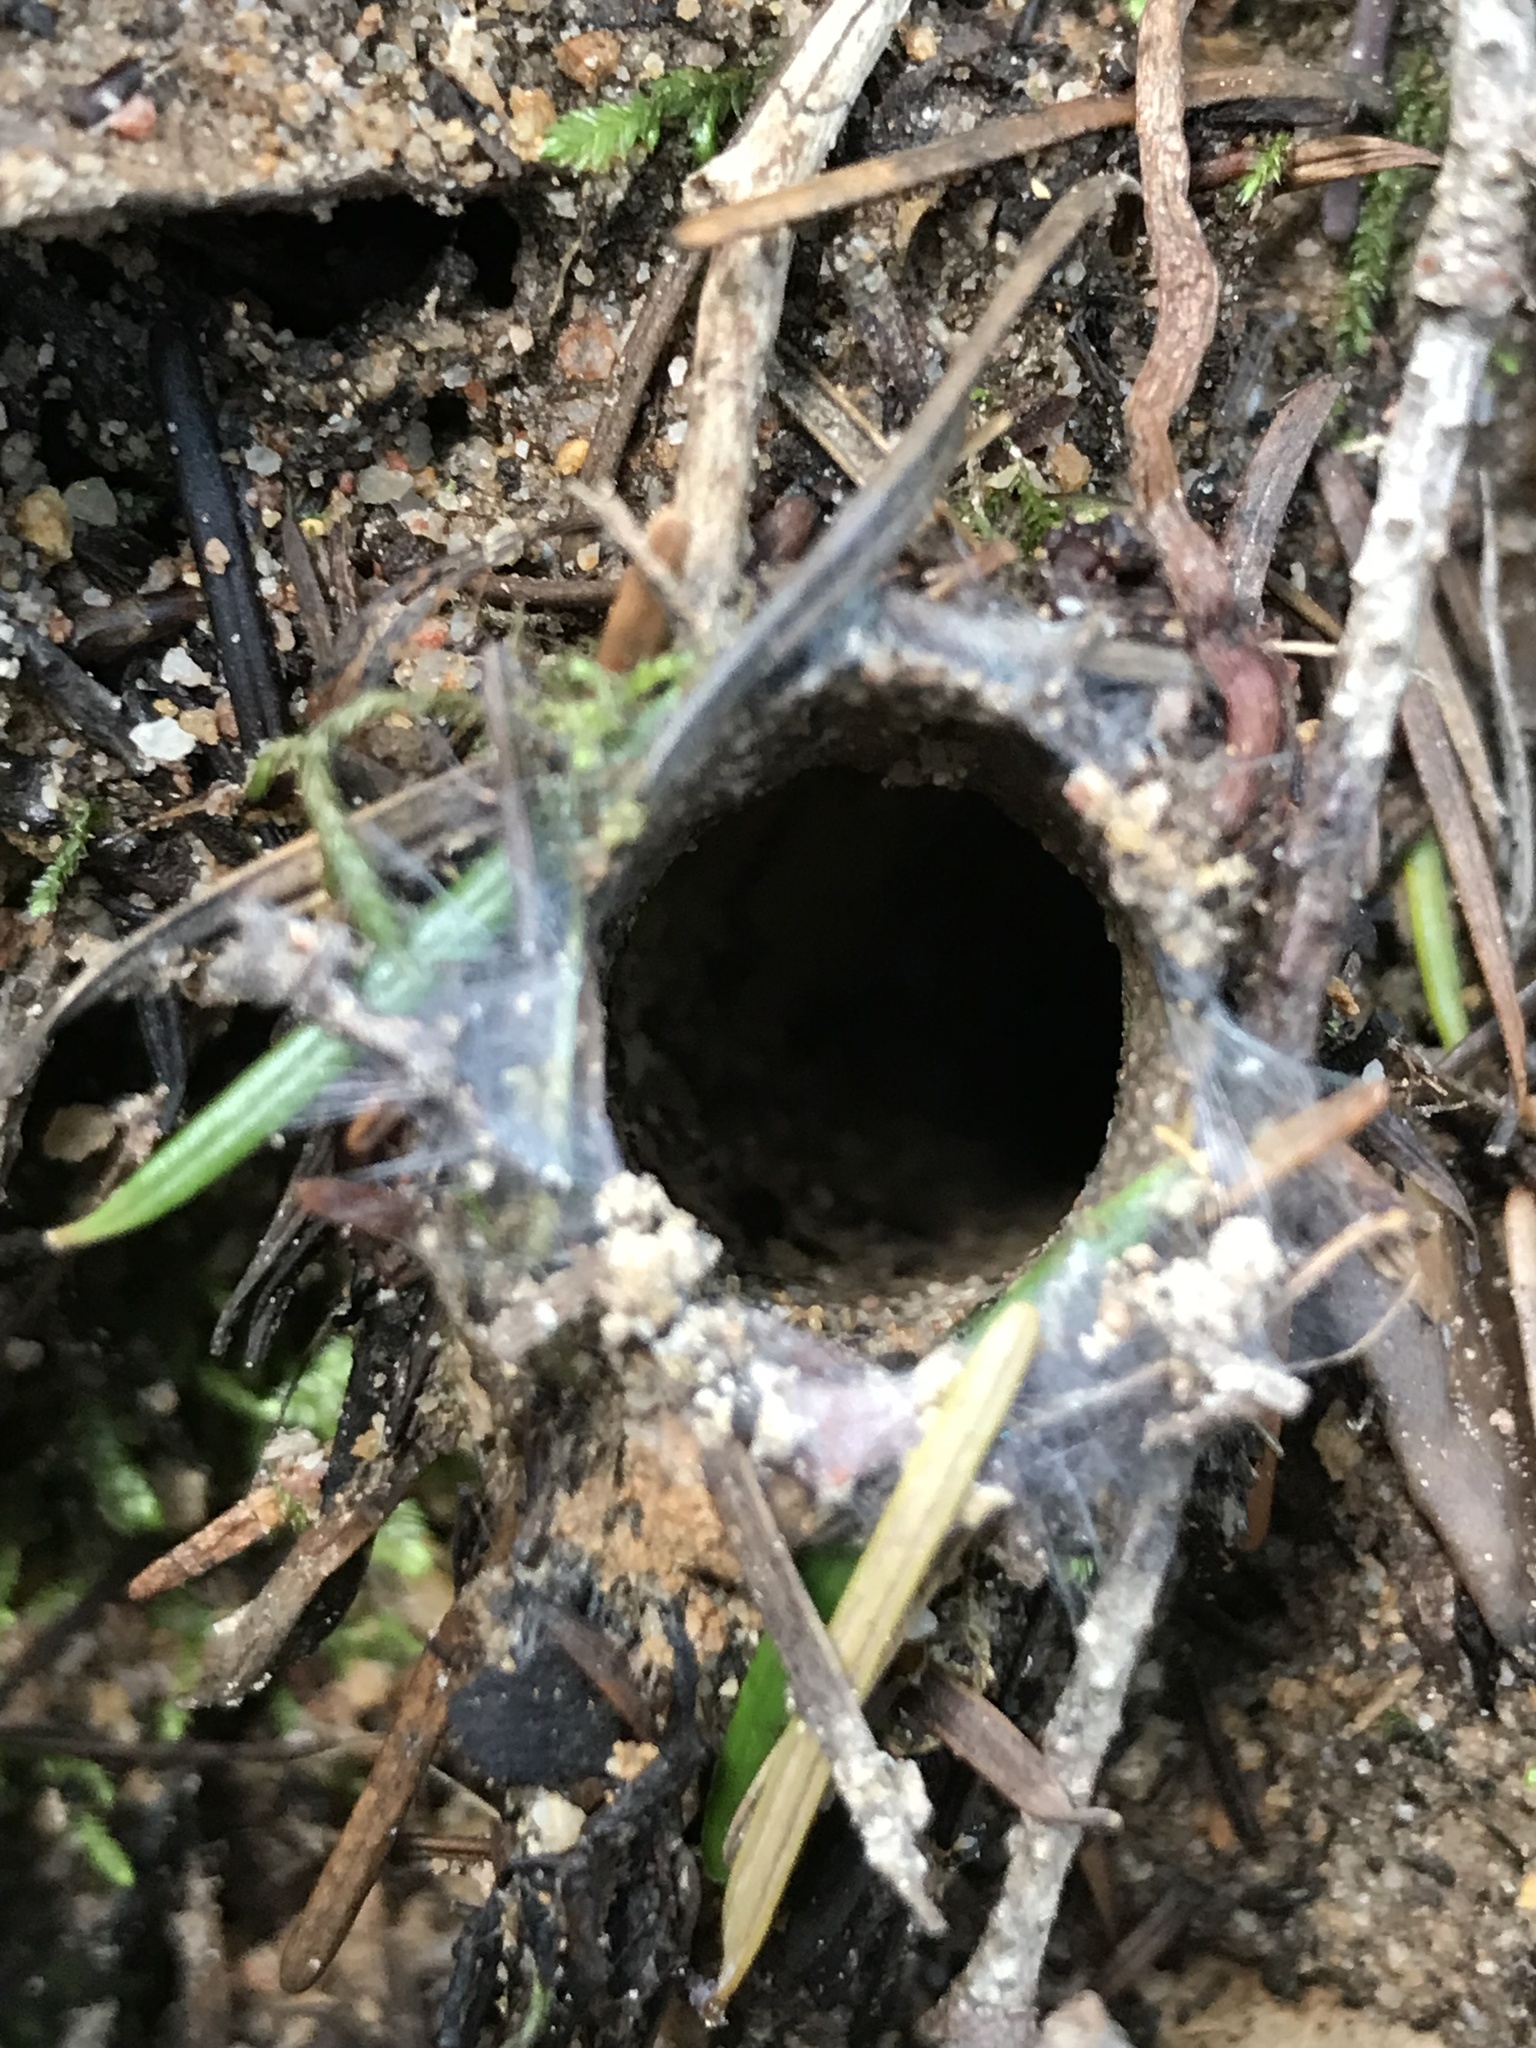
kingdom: Animalia
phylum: Arthropoda
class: Arachnida
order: Araneae
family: Antrodiaetidae
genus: Atypoides
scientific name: Atypoides riversi
